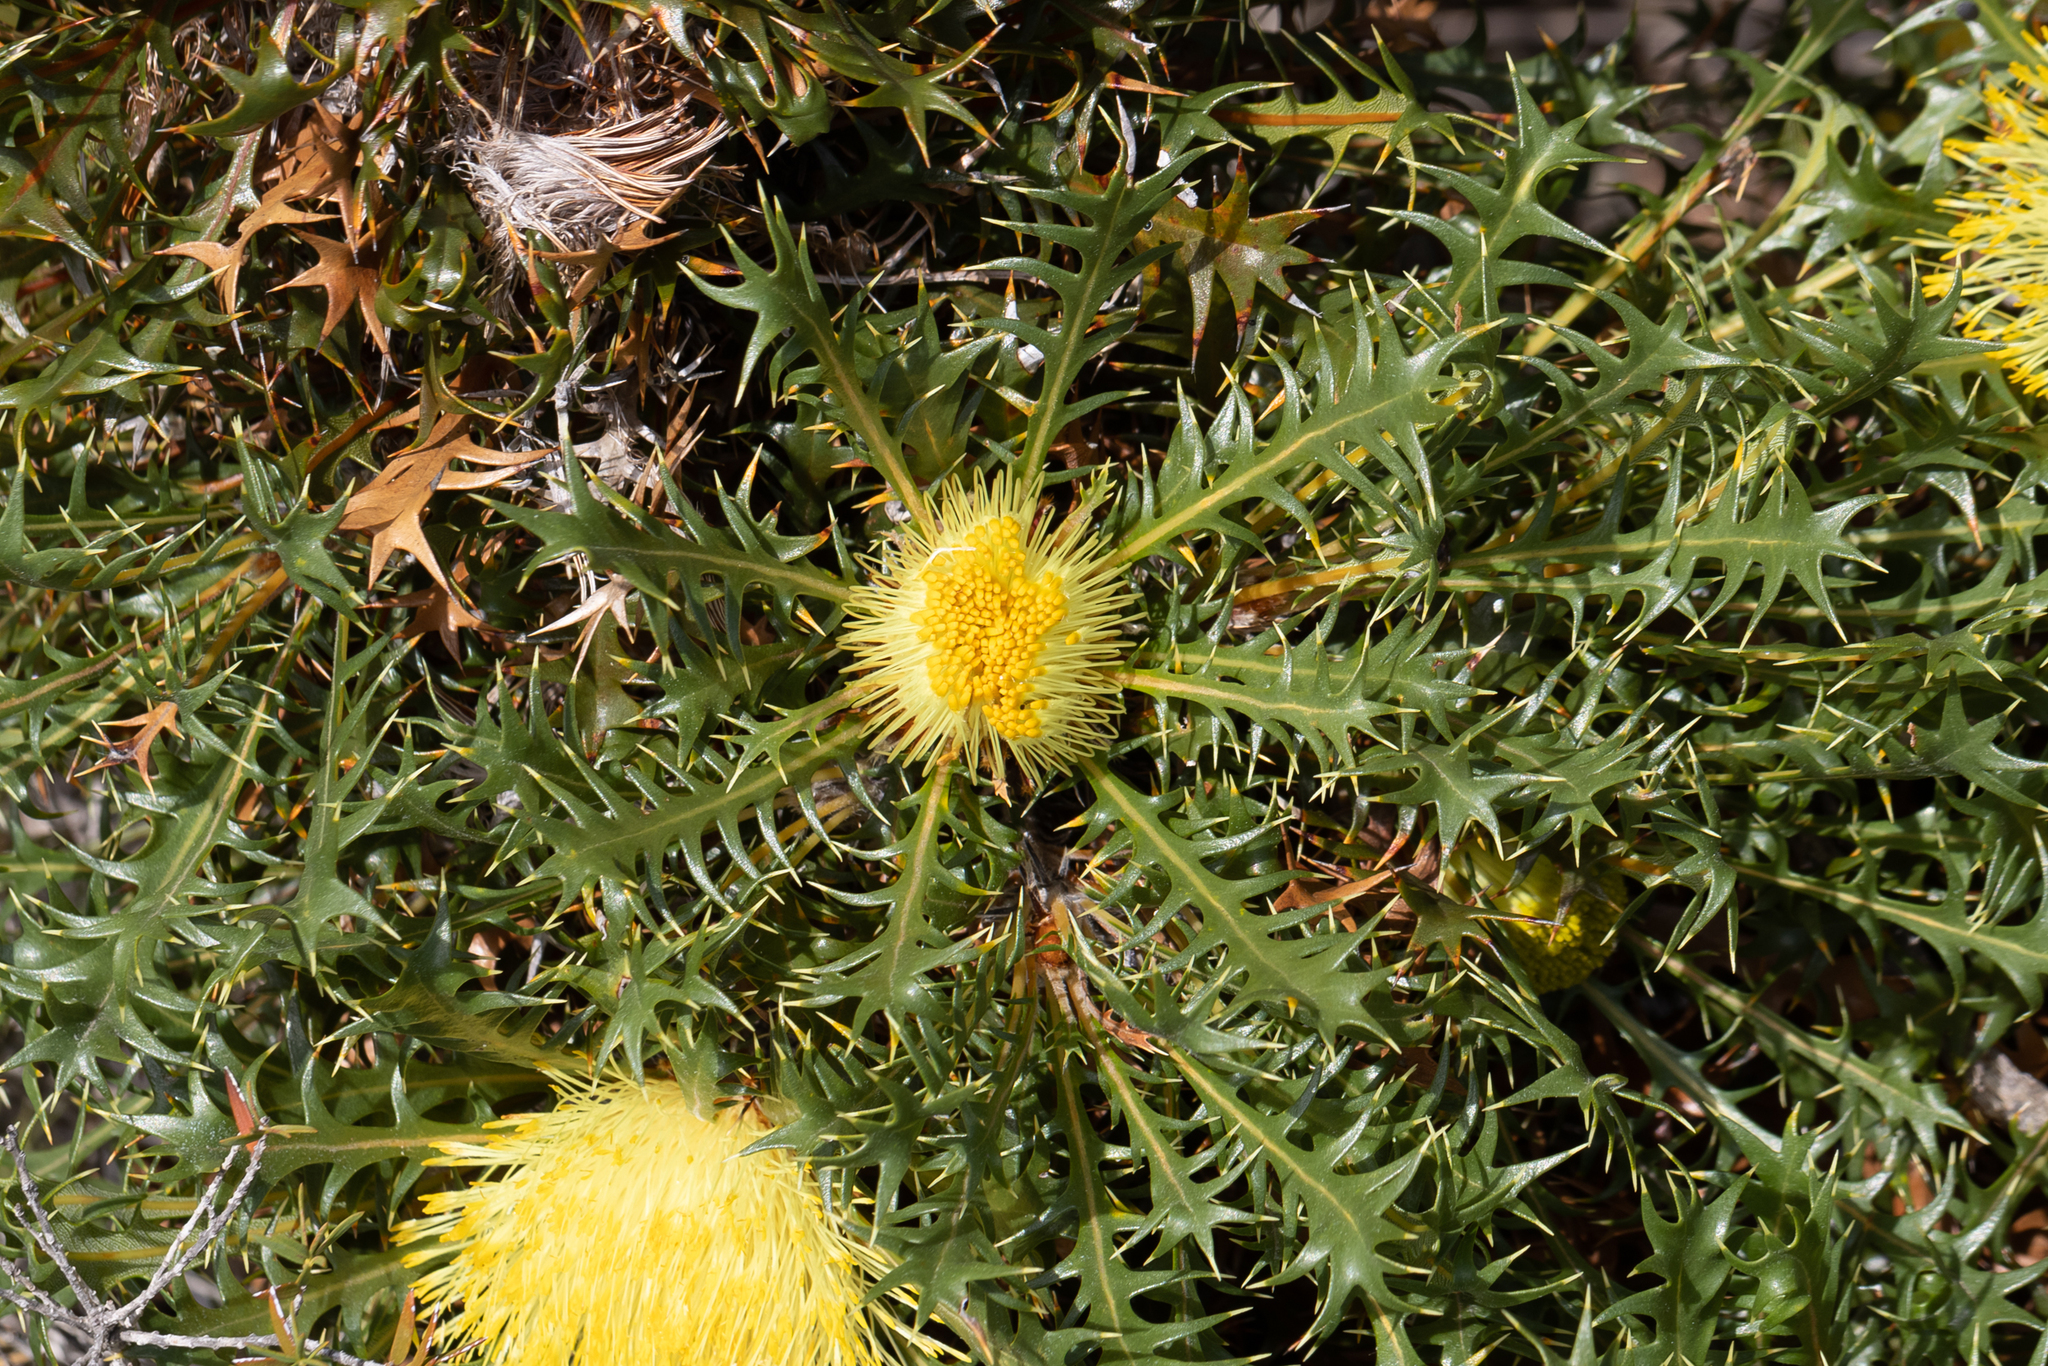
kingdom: Plantae
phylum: Tracheophyta
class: Magnoliopsida
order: Proteales
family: Proteaceae
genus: Banksia
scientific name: Banksia falcata
